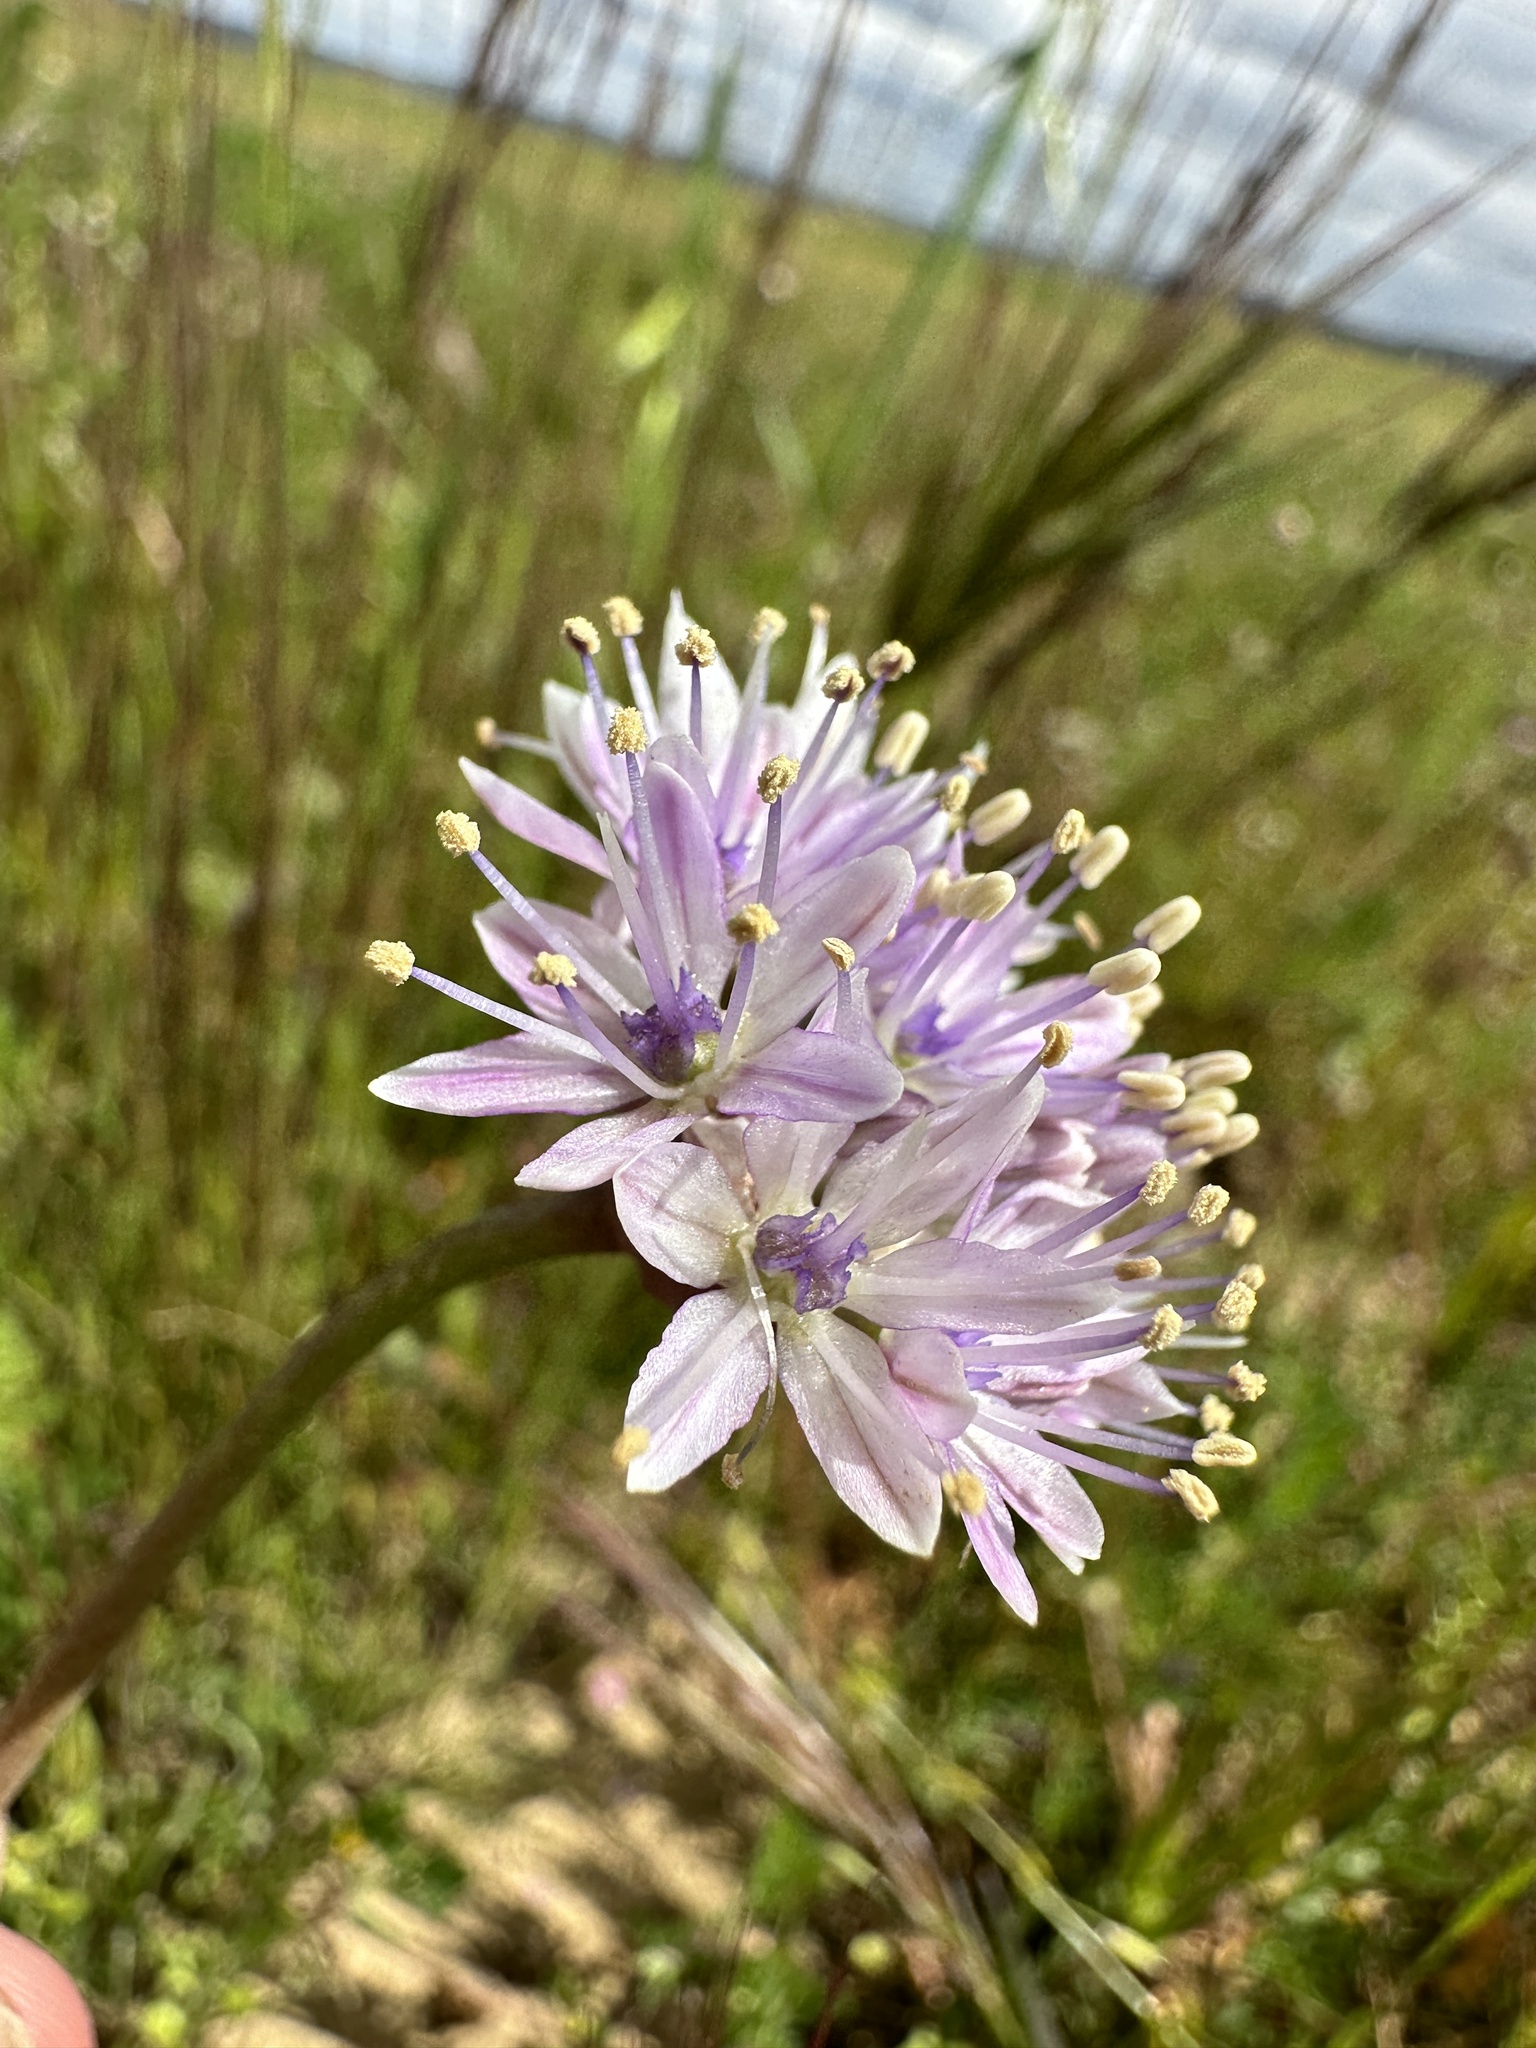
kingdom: Plantae
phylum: Tracheophyta
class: Liliopsida
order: Asparagales
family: Amaryllidaceae
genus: Allium
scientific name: Allium howellii
